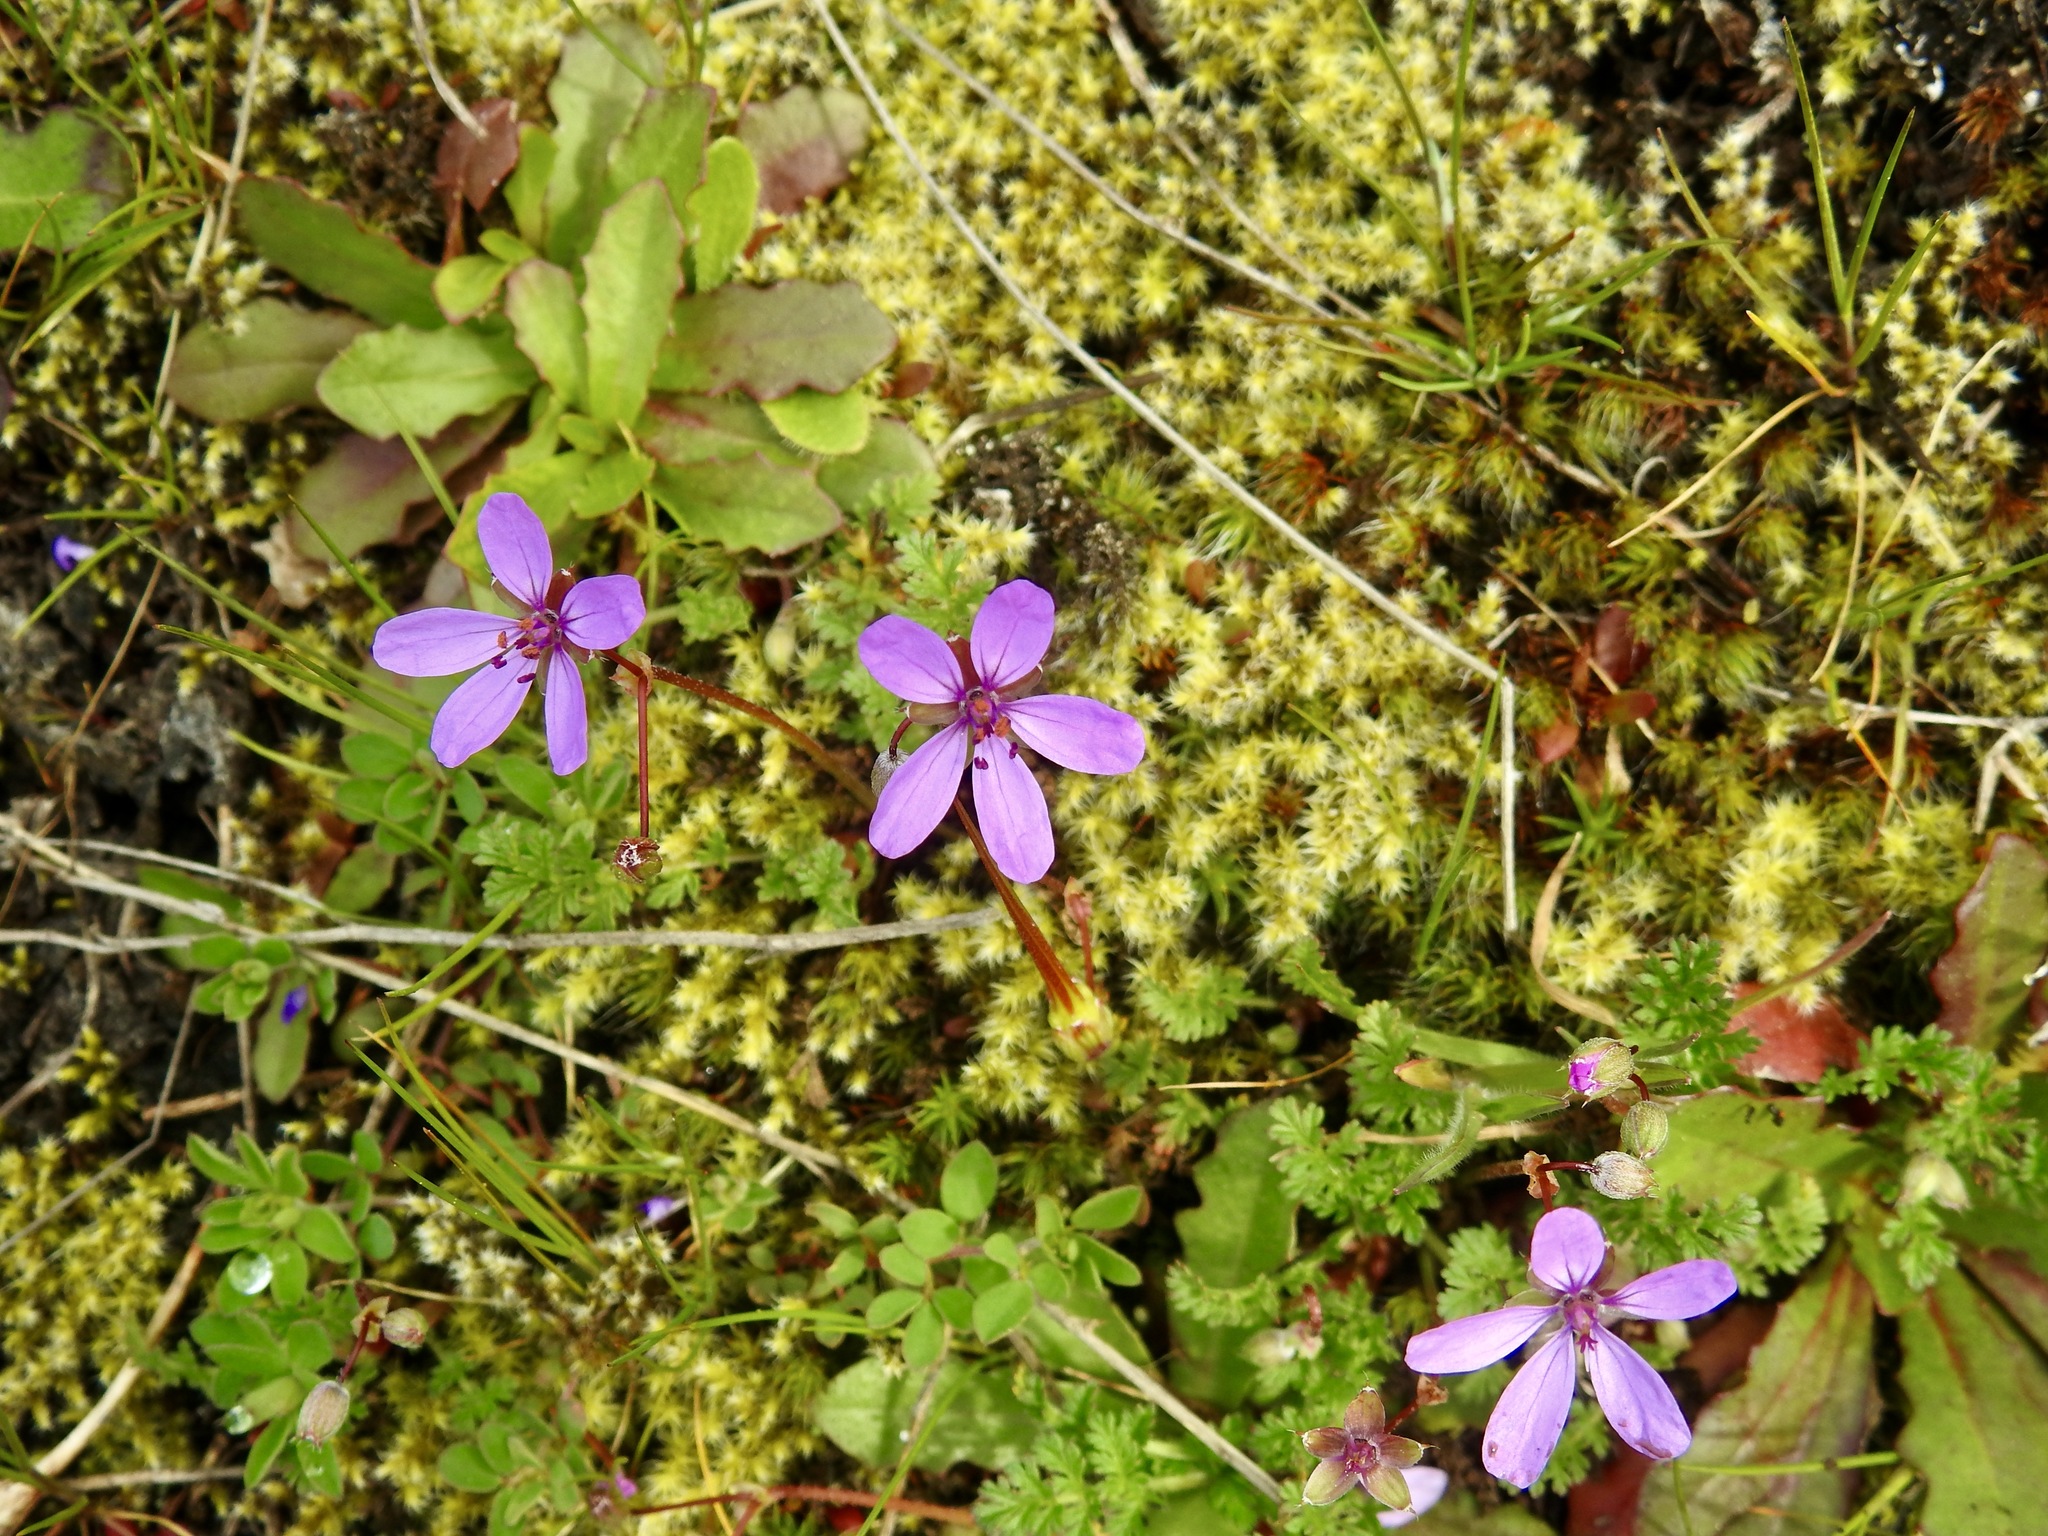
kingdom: Plantae
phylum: Tracheophyta
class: Magnoliopsida
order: Geraniales
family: Geraniaceae
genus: Erodium
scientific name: Erodium cicutarium
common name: Common stork's-bill
